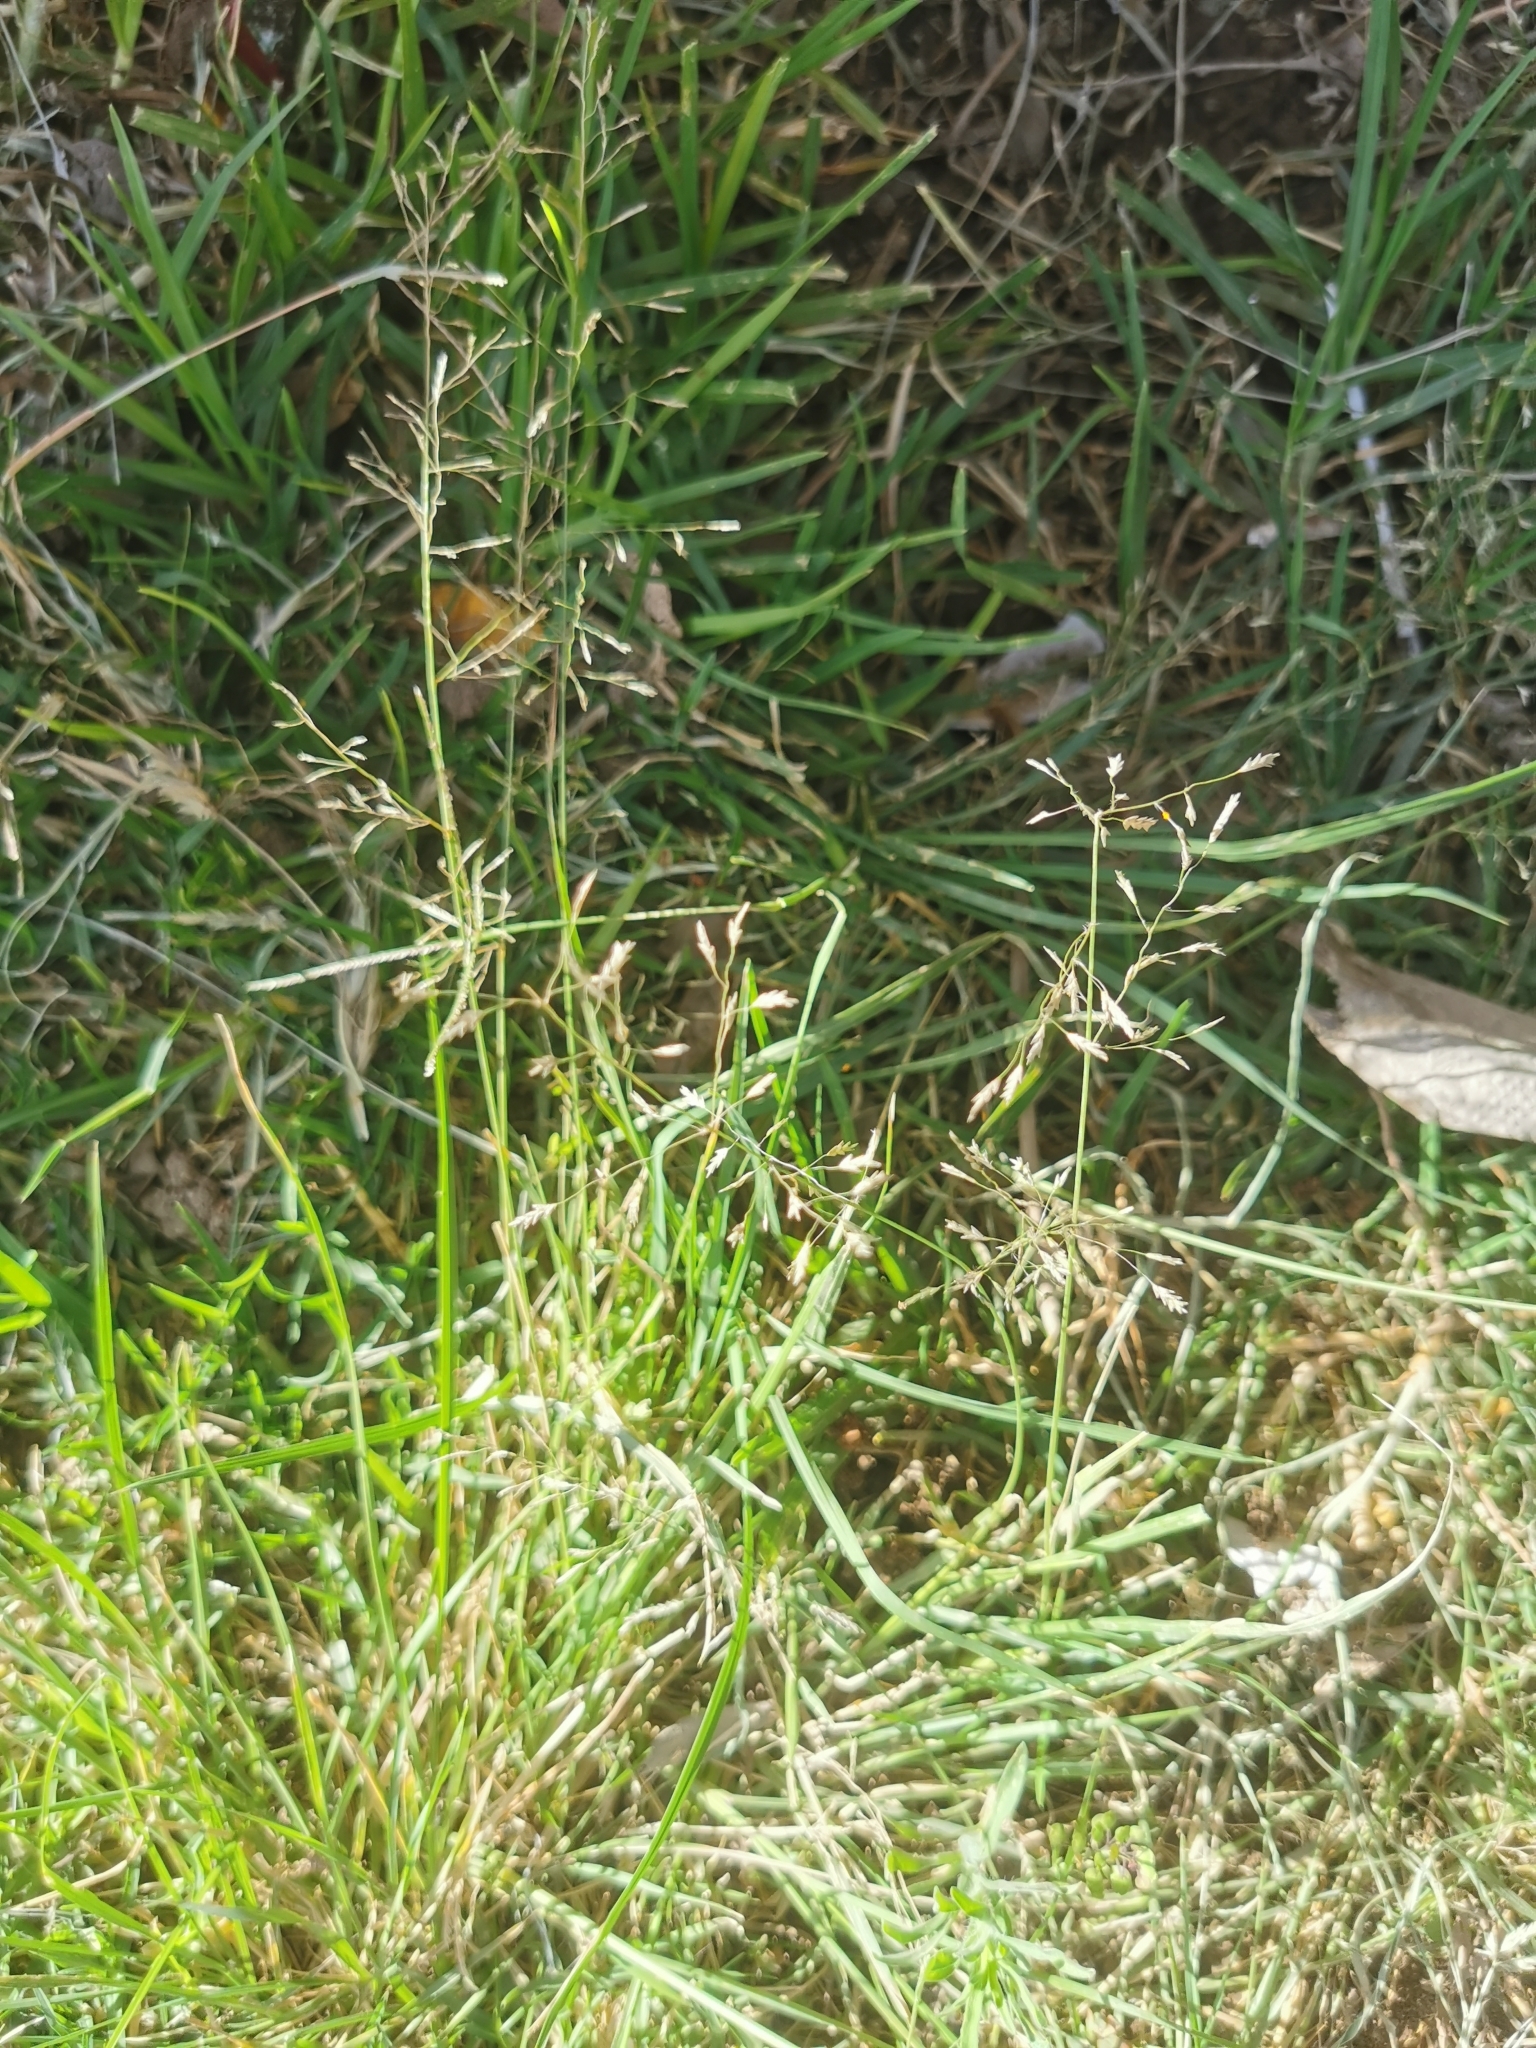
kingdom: Plantae
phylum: Tracheophyta
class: Liliopsida
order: Poales
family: Poaceae
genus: Eragrostis
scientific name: Eragrostis lehmanniana
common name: Lehmann lovegrass
